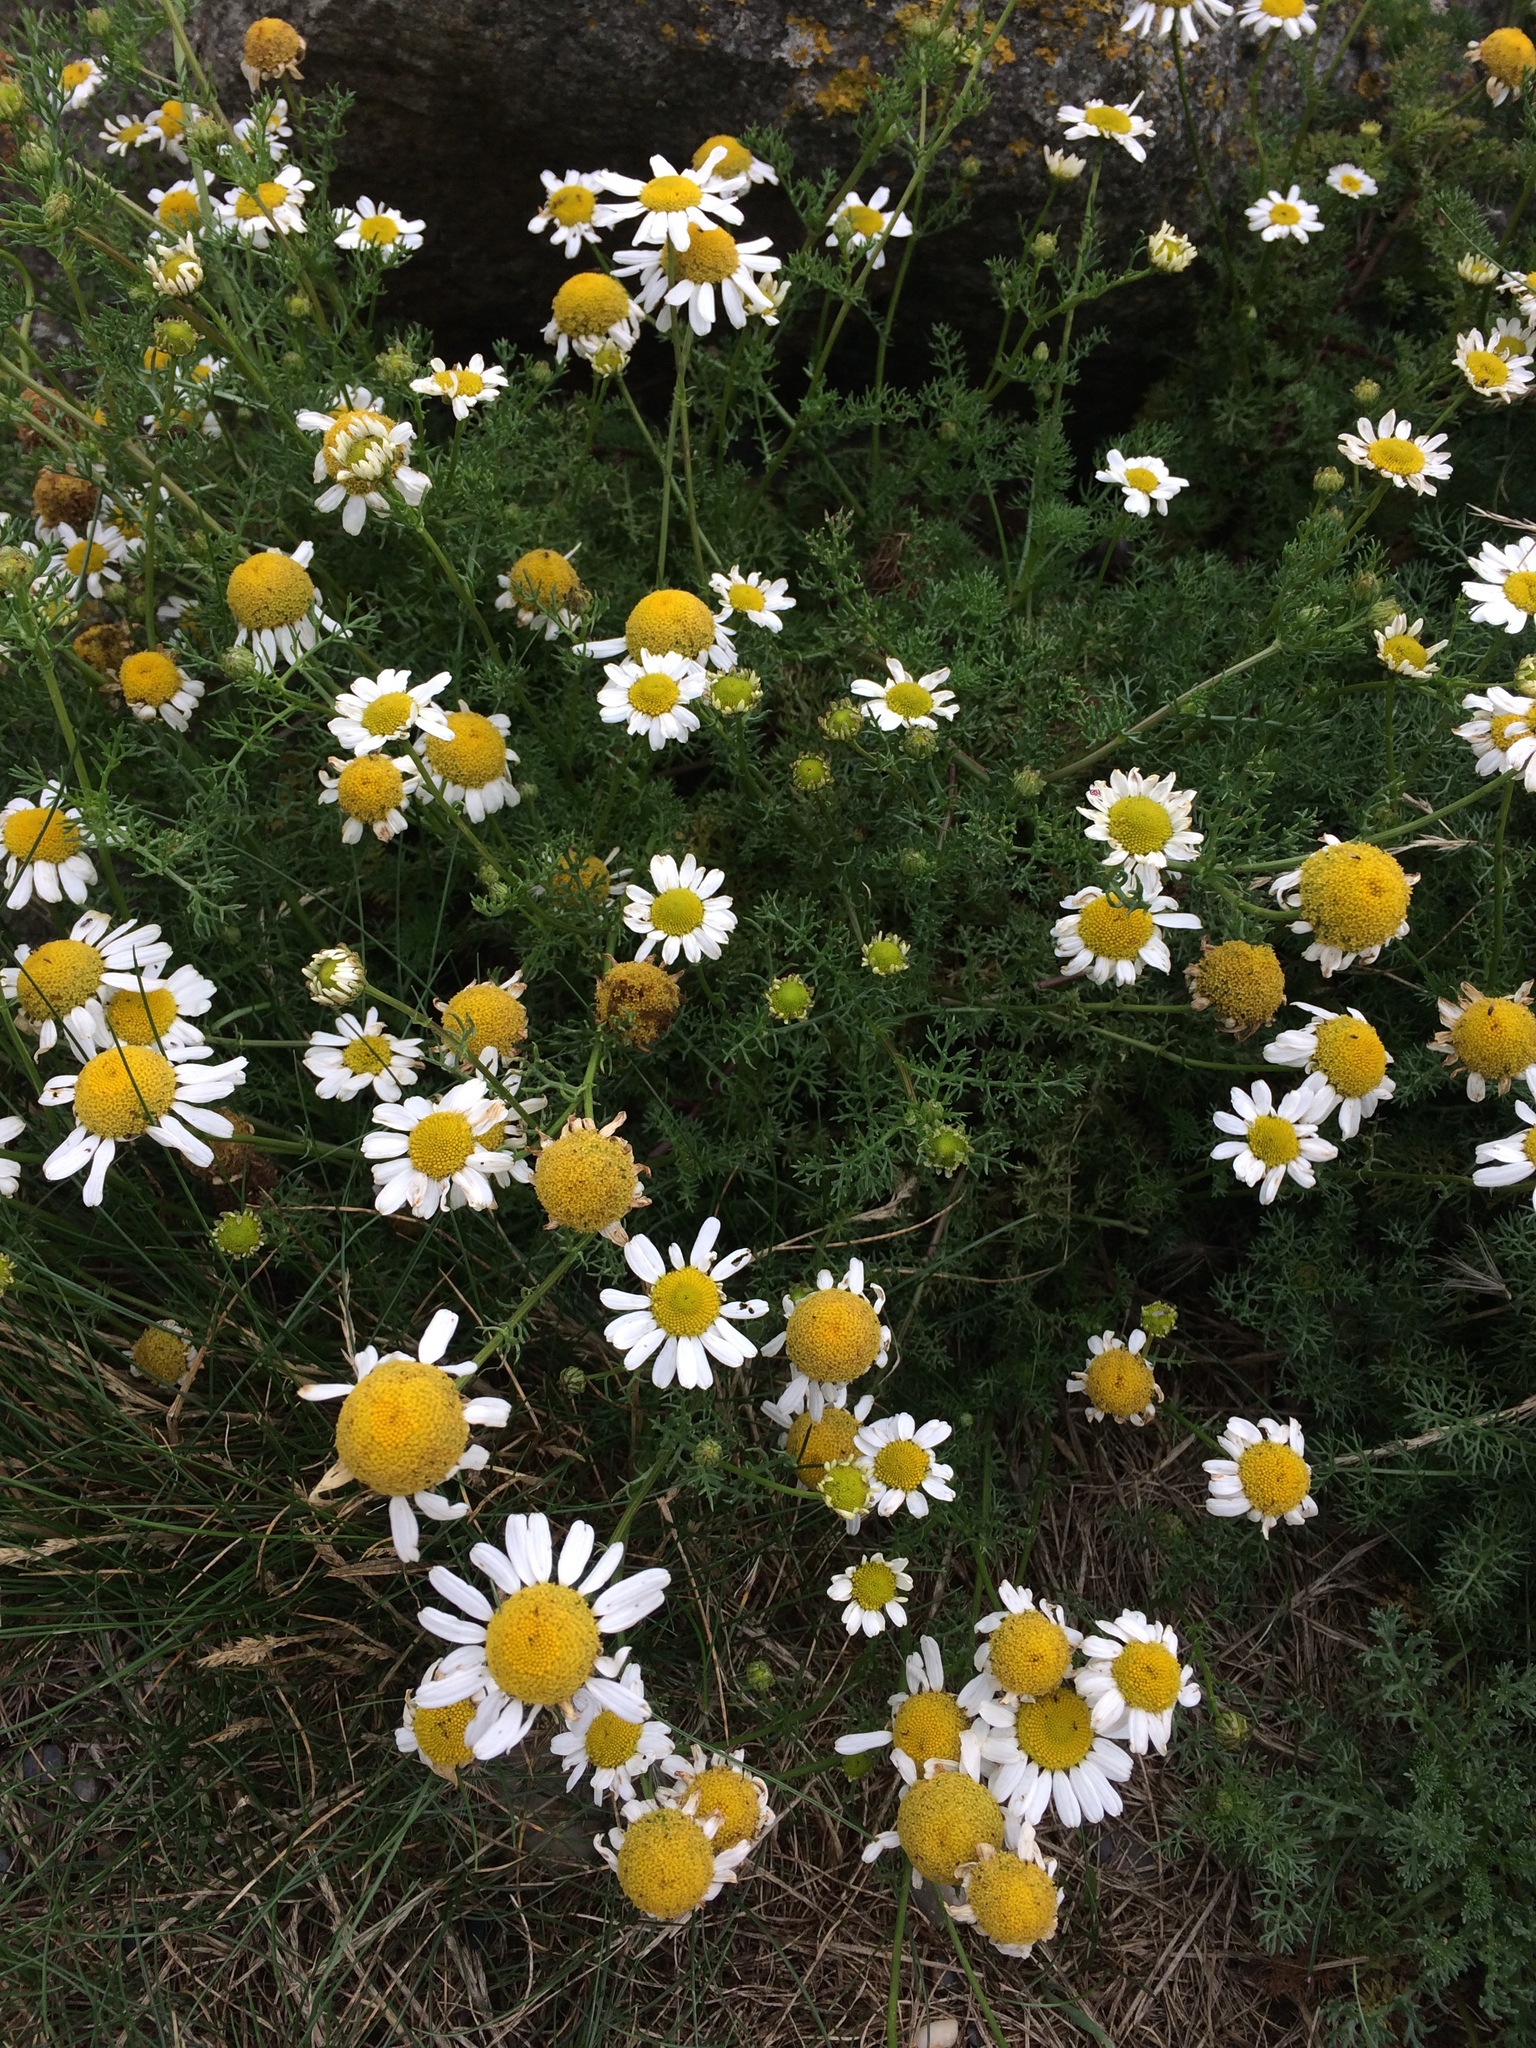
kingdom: Plantae
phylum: Tracheophyta
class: Magnoliopsida
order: Asterales
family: Asteraceae
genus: Tripleurospermum
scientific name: Tripleurospermum maritimum
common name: Sea mayweed
